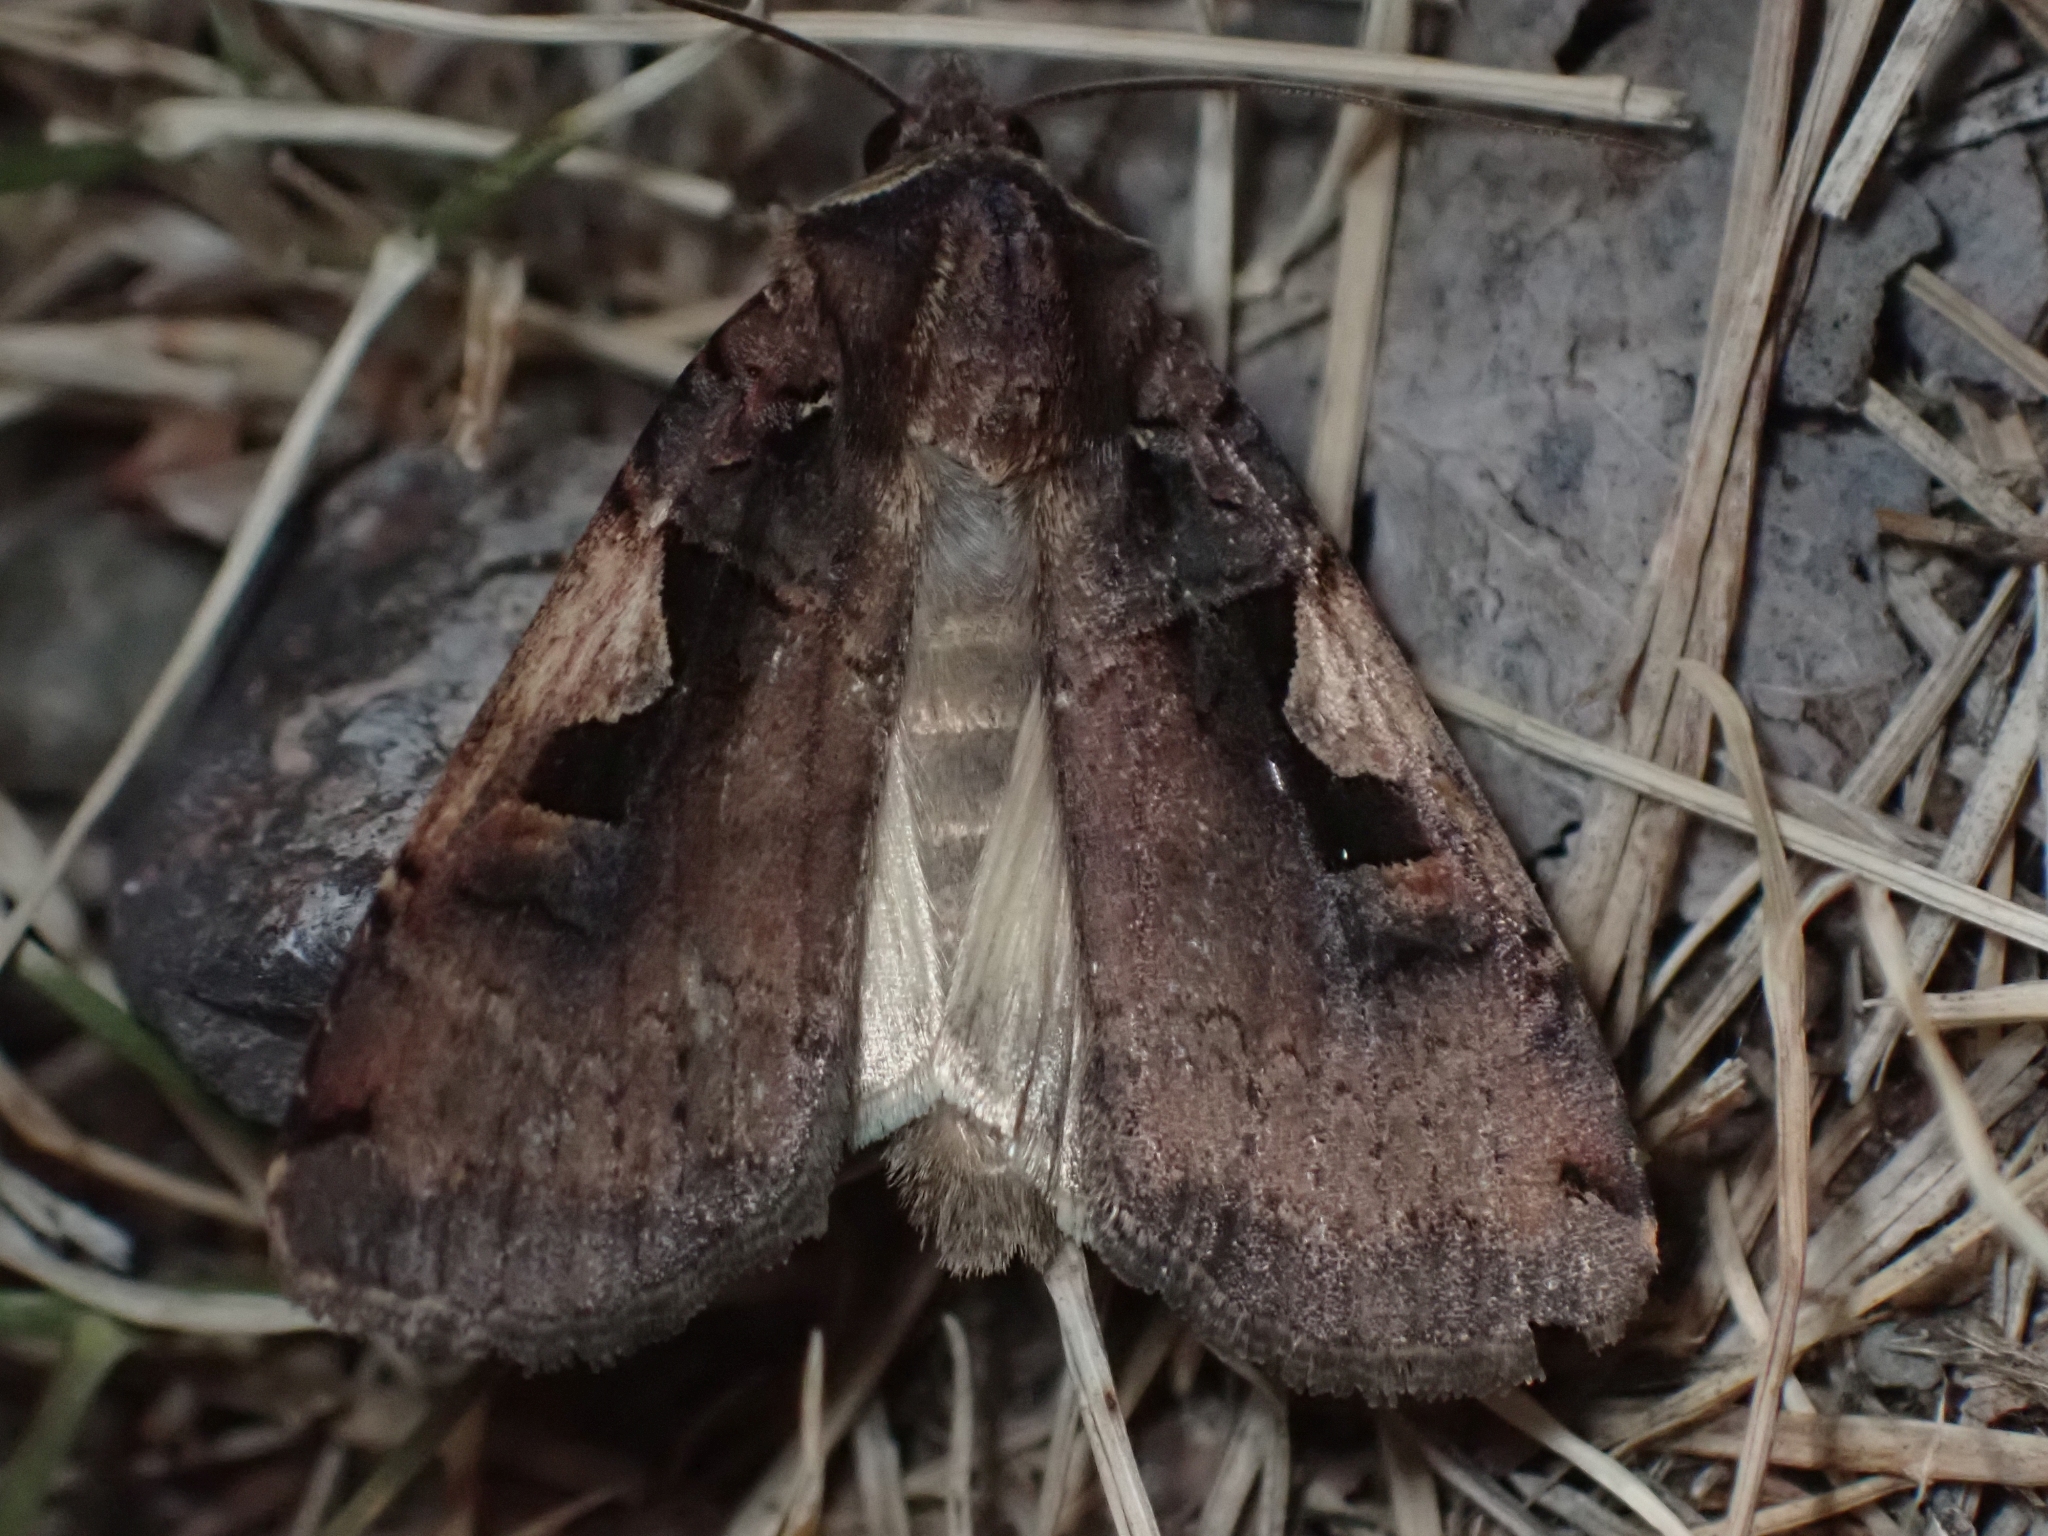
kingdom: Animalia
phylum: Arthropoda
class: Insecta
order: Lepidoptera
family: Noctuidae
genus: Xestia
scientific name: Xestia c-nigrum
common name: Setaceous hebrew character
